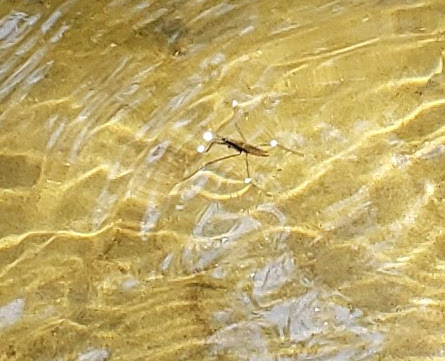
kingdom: Animalia
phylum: Arthropoda
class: Insecta
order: Hemiptera
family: Gerridae
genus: Aquarius
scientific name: Aquarius remigis
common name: Common water strider
